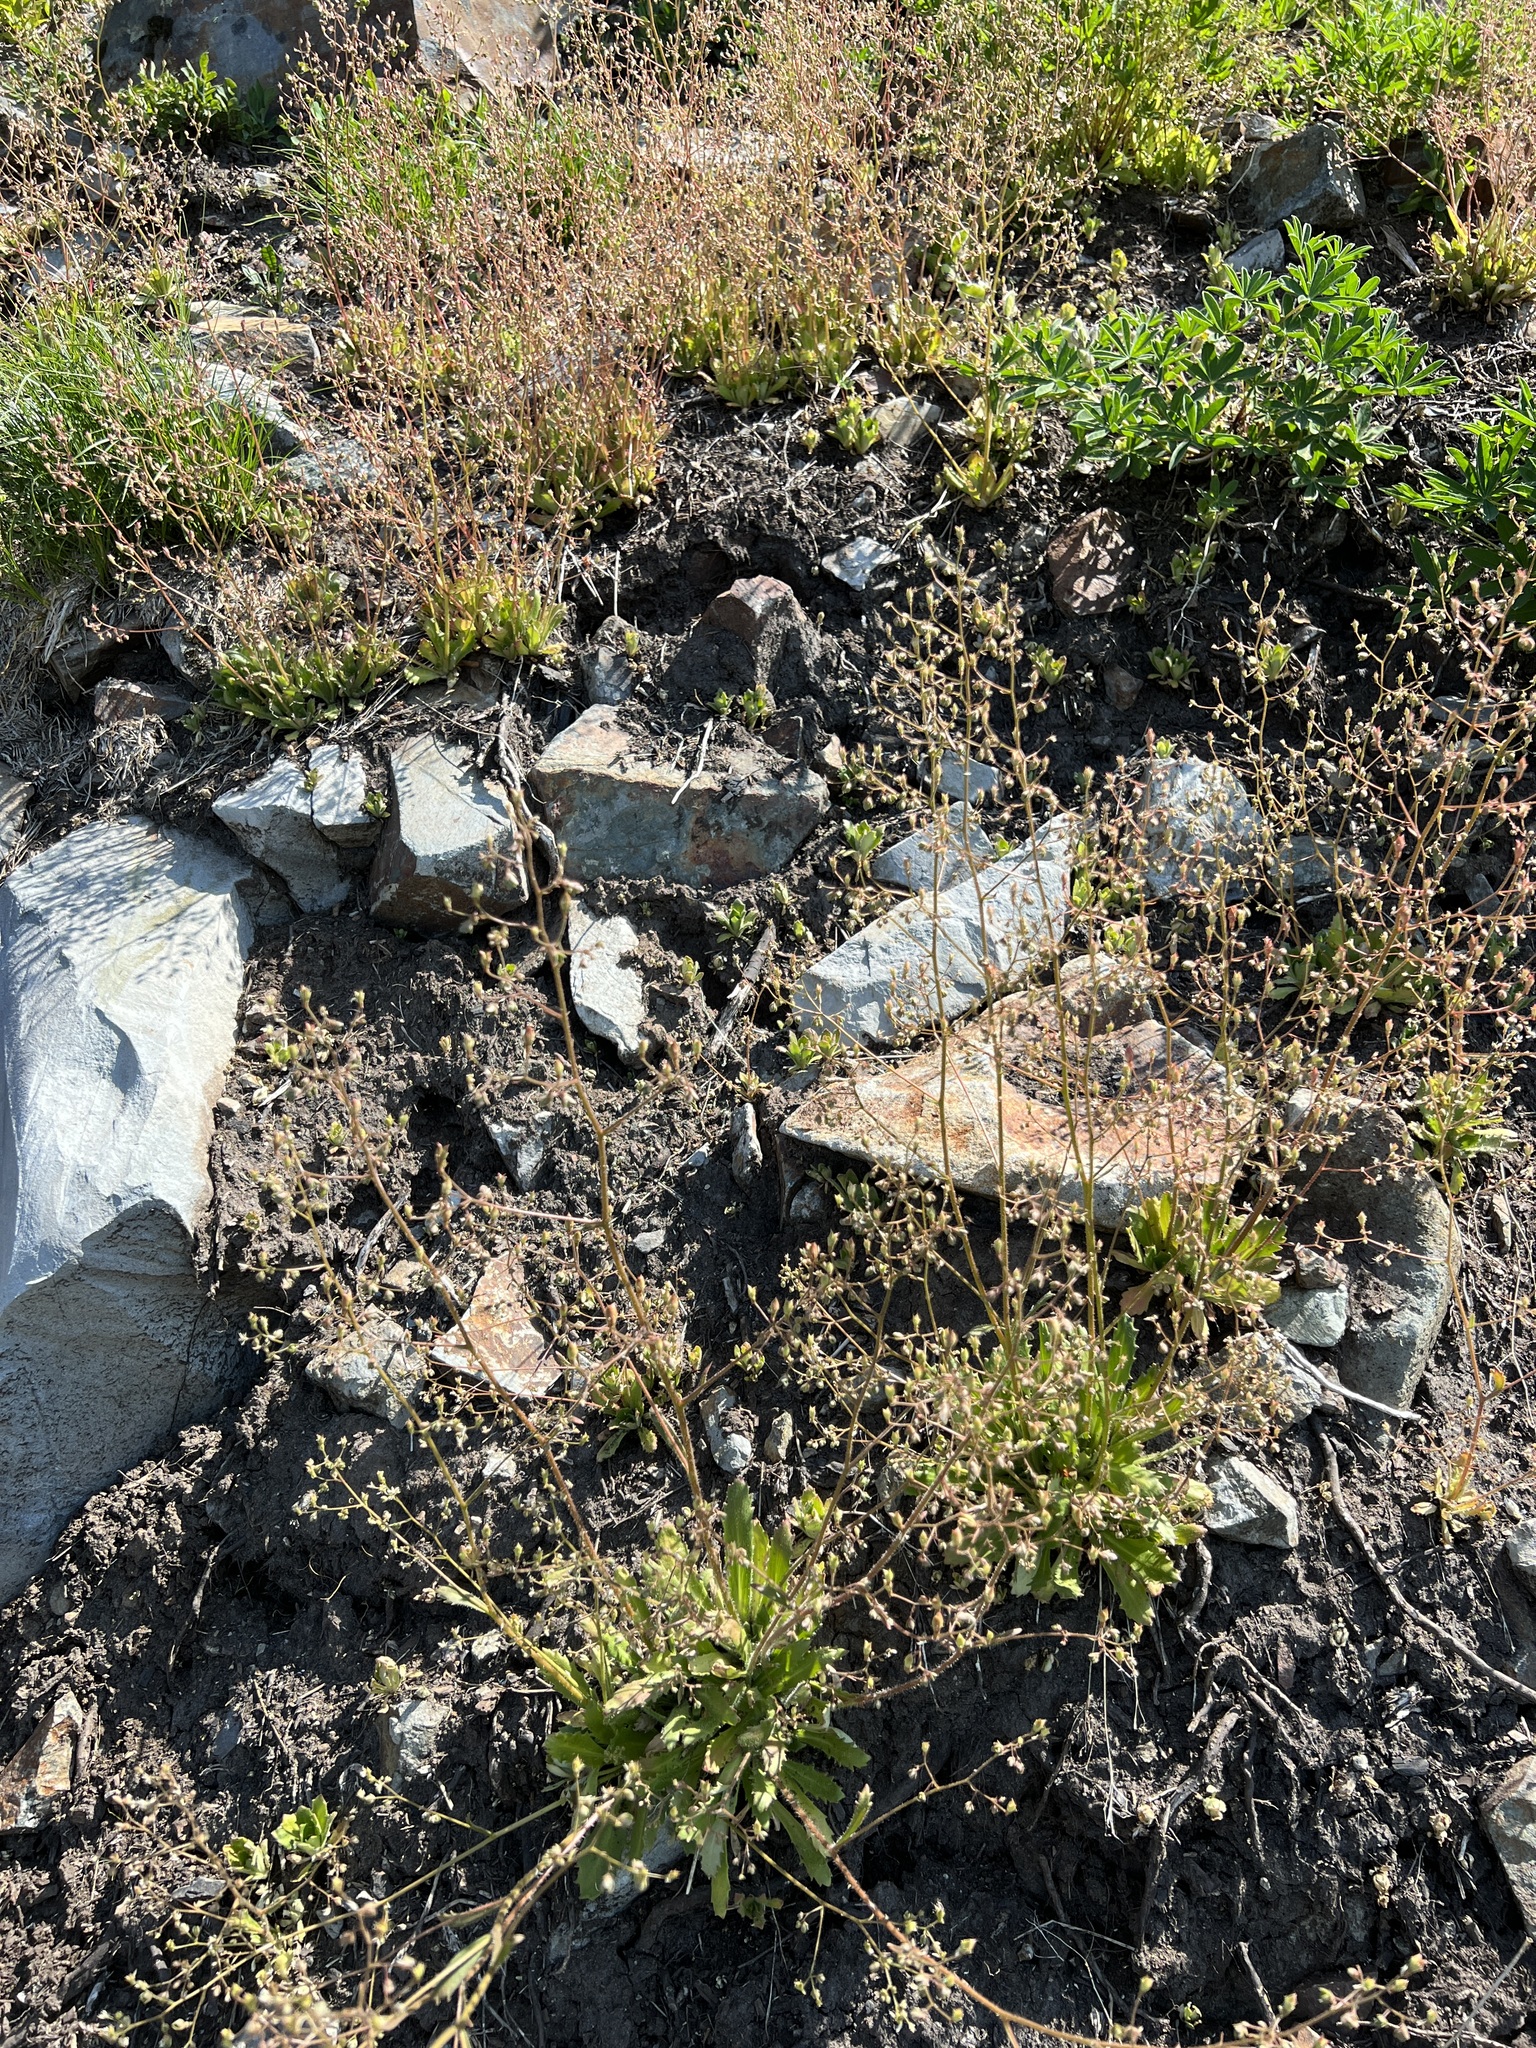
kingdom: Plantae
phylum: Tracheophyta
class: Magnoliopsida
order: Saxifragales
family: Saxifragaceae
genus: Micranthes
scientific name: Micranthes ferruginea
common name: Rusty saxifrage
